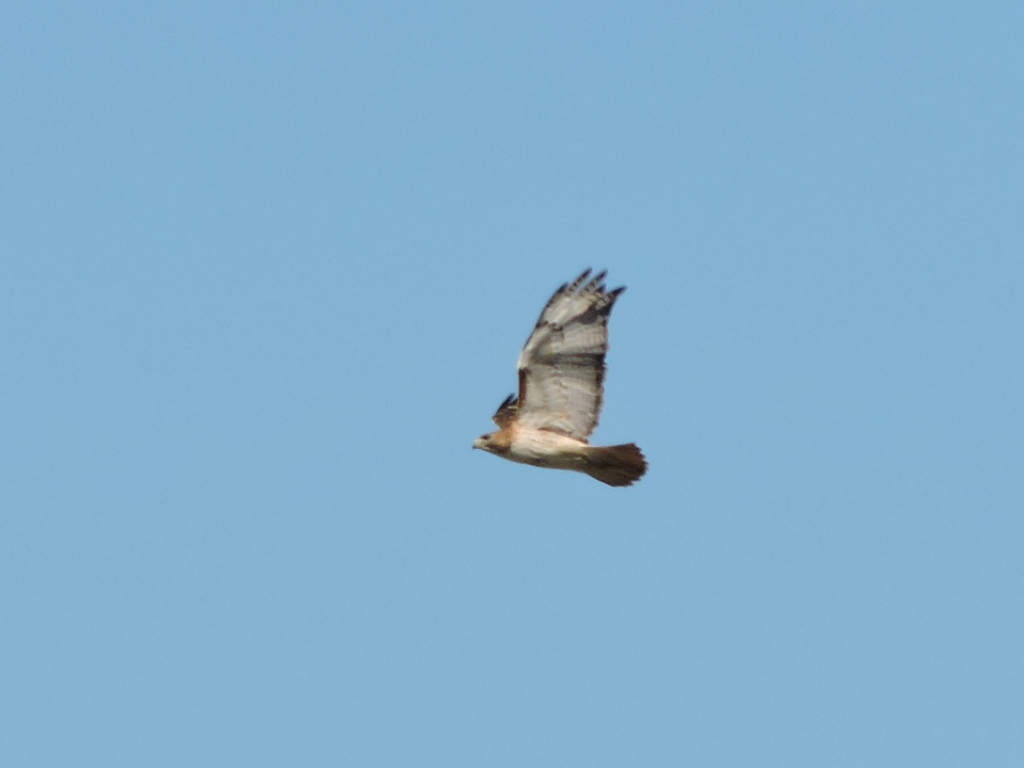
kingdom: Animalia
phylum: Chordata
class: Aves
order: Accipitriformes
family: Accipitridae
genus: Buteo
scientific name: Buteo jamaicensis
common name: Red-tailed hawk
